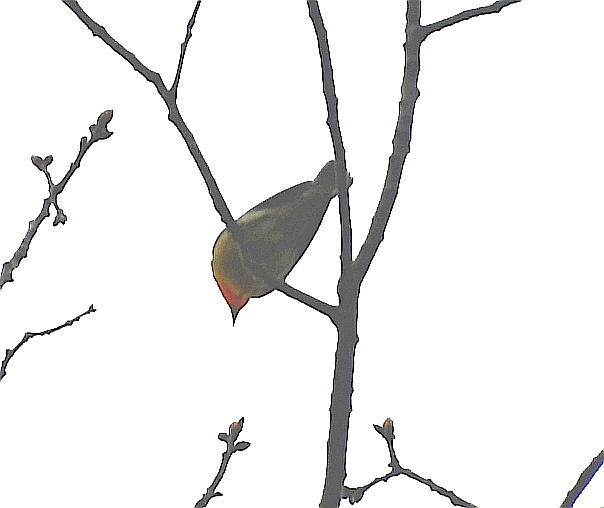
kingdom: Animalia
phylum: Chordata
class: Aves
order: Passeriformes
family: Parulidae
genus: Setophaga
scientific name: Setophaga fusca
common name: Blackburnian warbler
